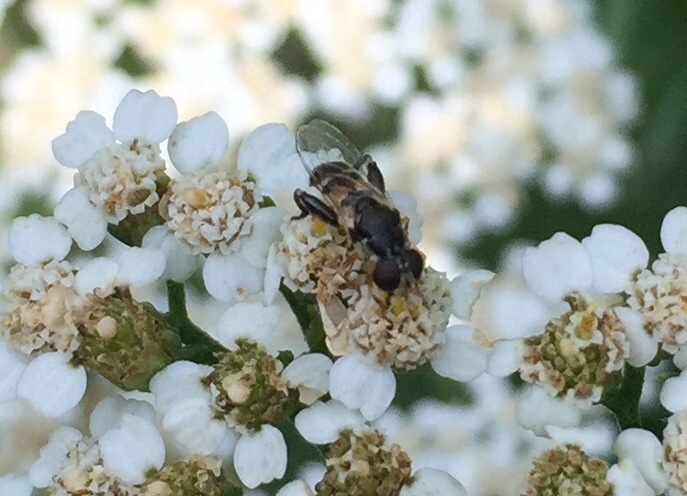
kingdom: Animalia
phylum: Arthropoda
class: Insecta
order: Diptera
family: Syrphidae
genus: Syritta
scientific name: Syritta pipiens
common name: Hover fly
